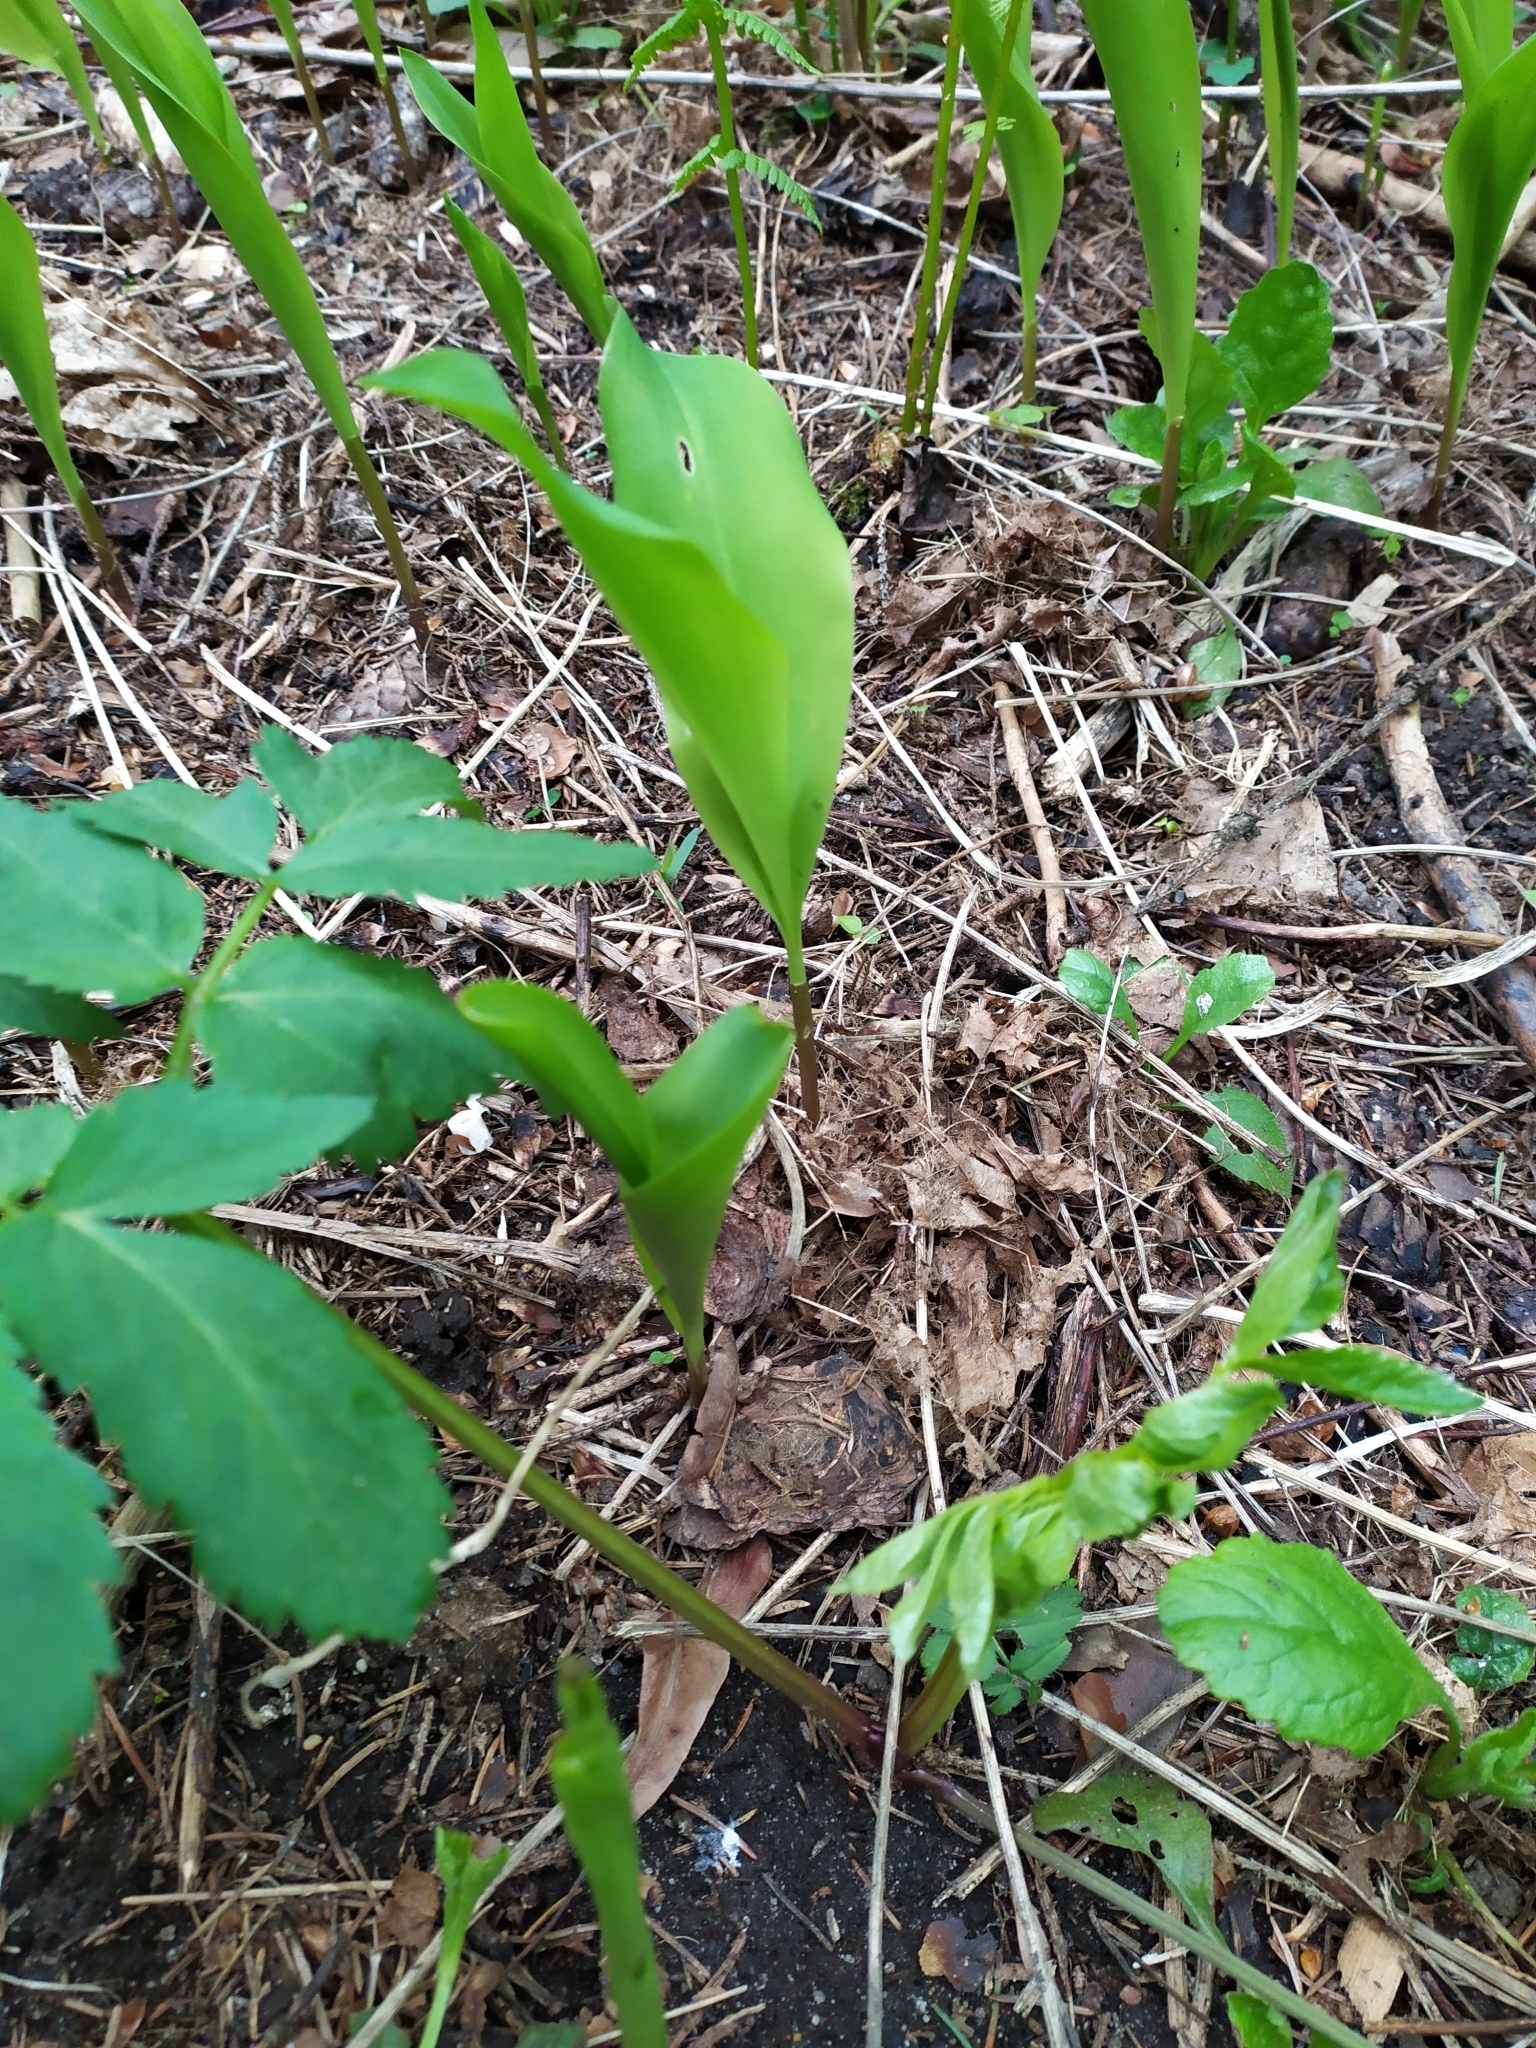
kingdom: Plantae
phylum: Tracheophyta
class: Liliopsida
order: Asparagales
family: Asparagaceae
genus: Convallaria
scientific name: Convallaria majalis
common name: Lily-of-the-valley
